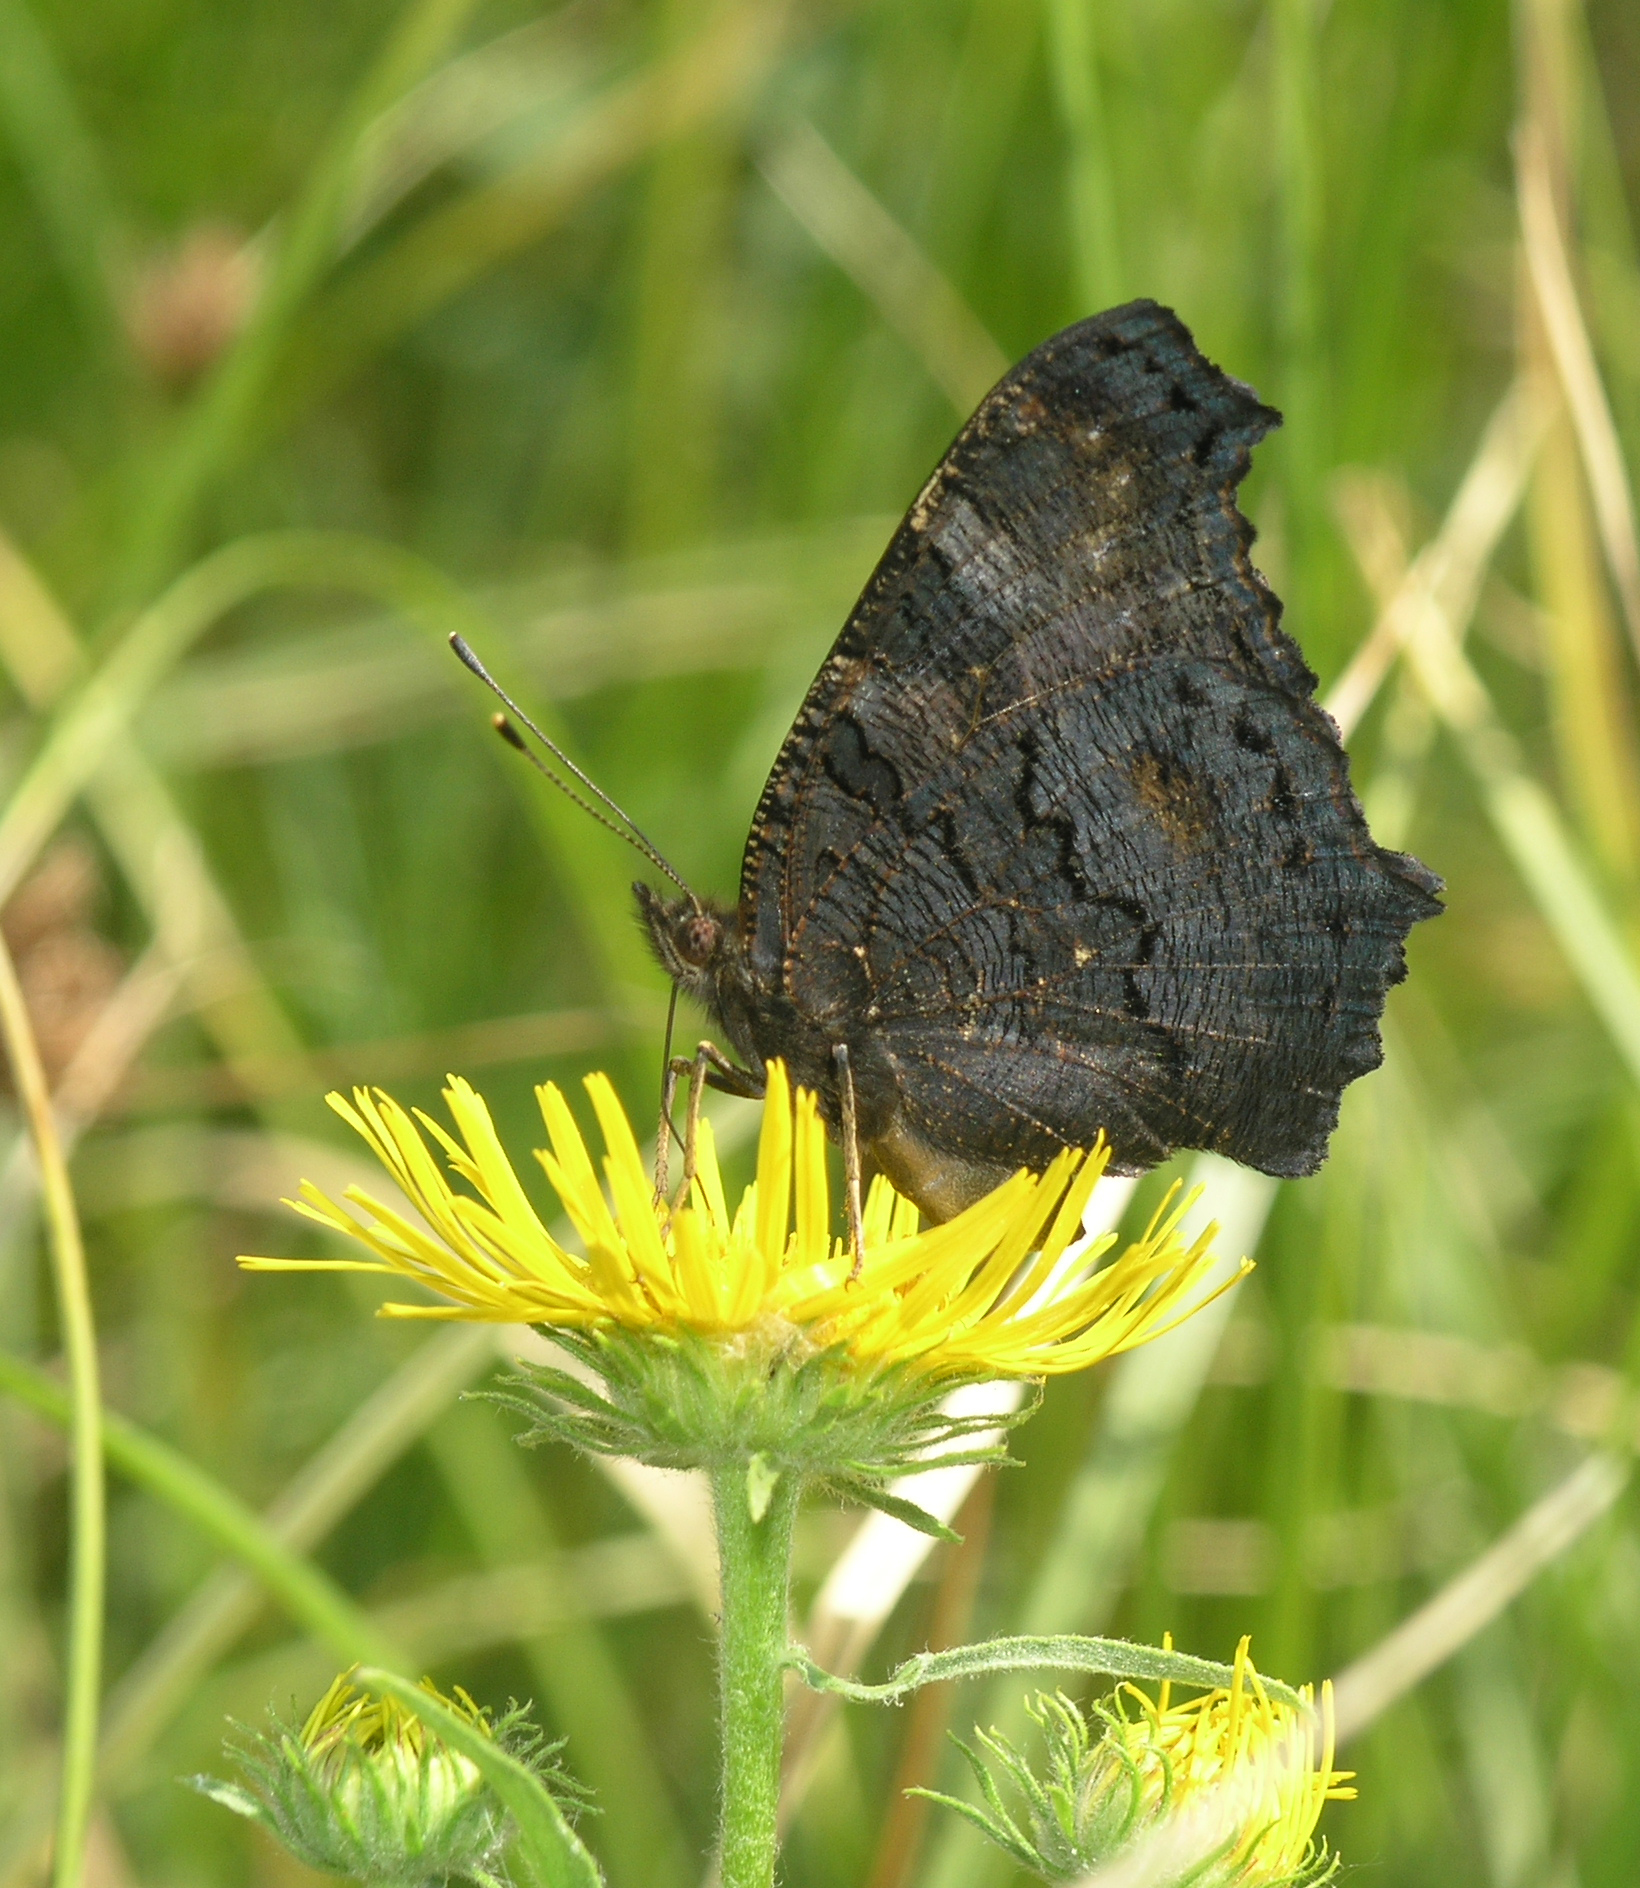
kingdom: Plantae
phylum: Tracheophyta
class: Magnoliopsida
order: Asterales
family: Asteraceae
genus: Pentanema
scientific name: Pentanema britannicum
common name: British elecampane
